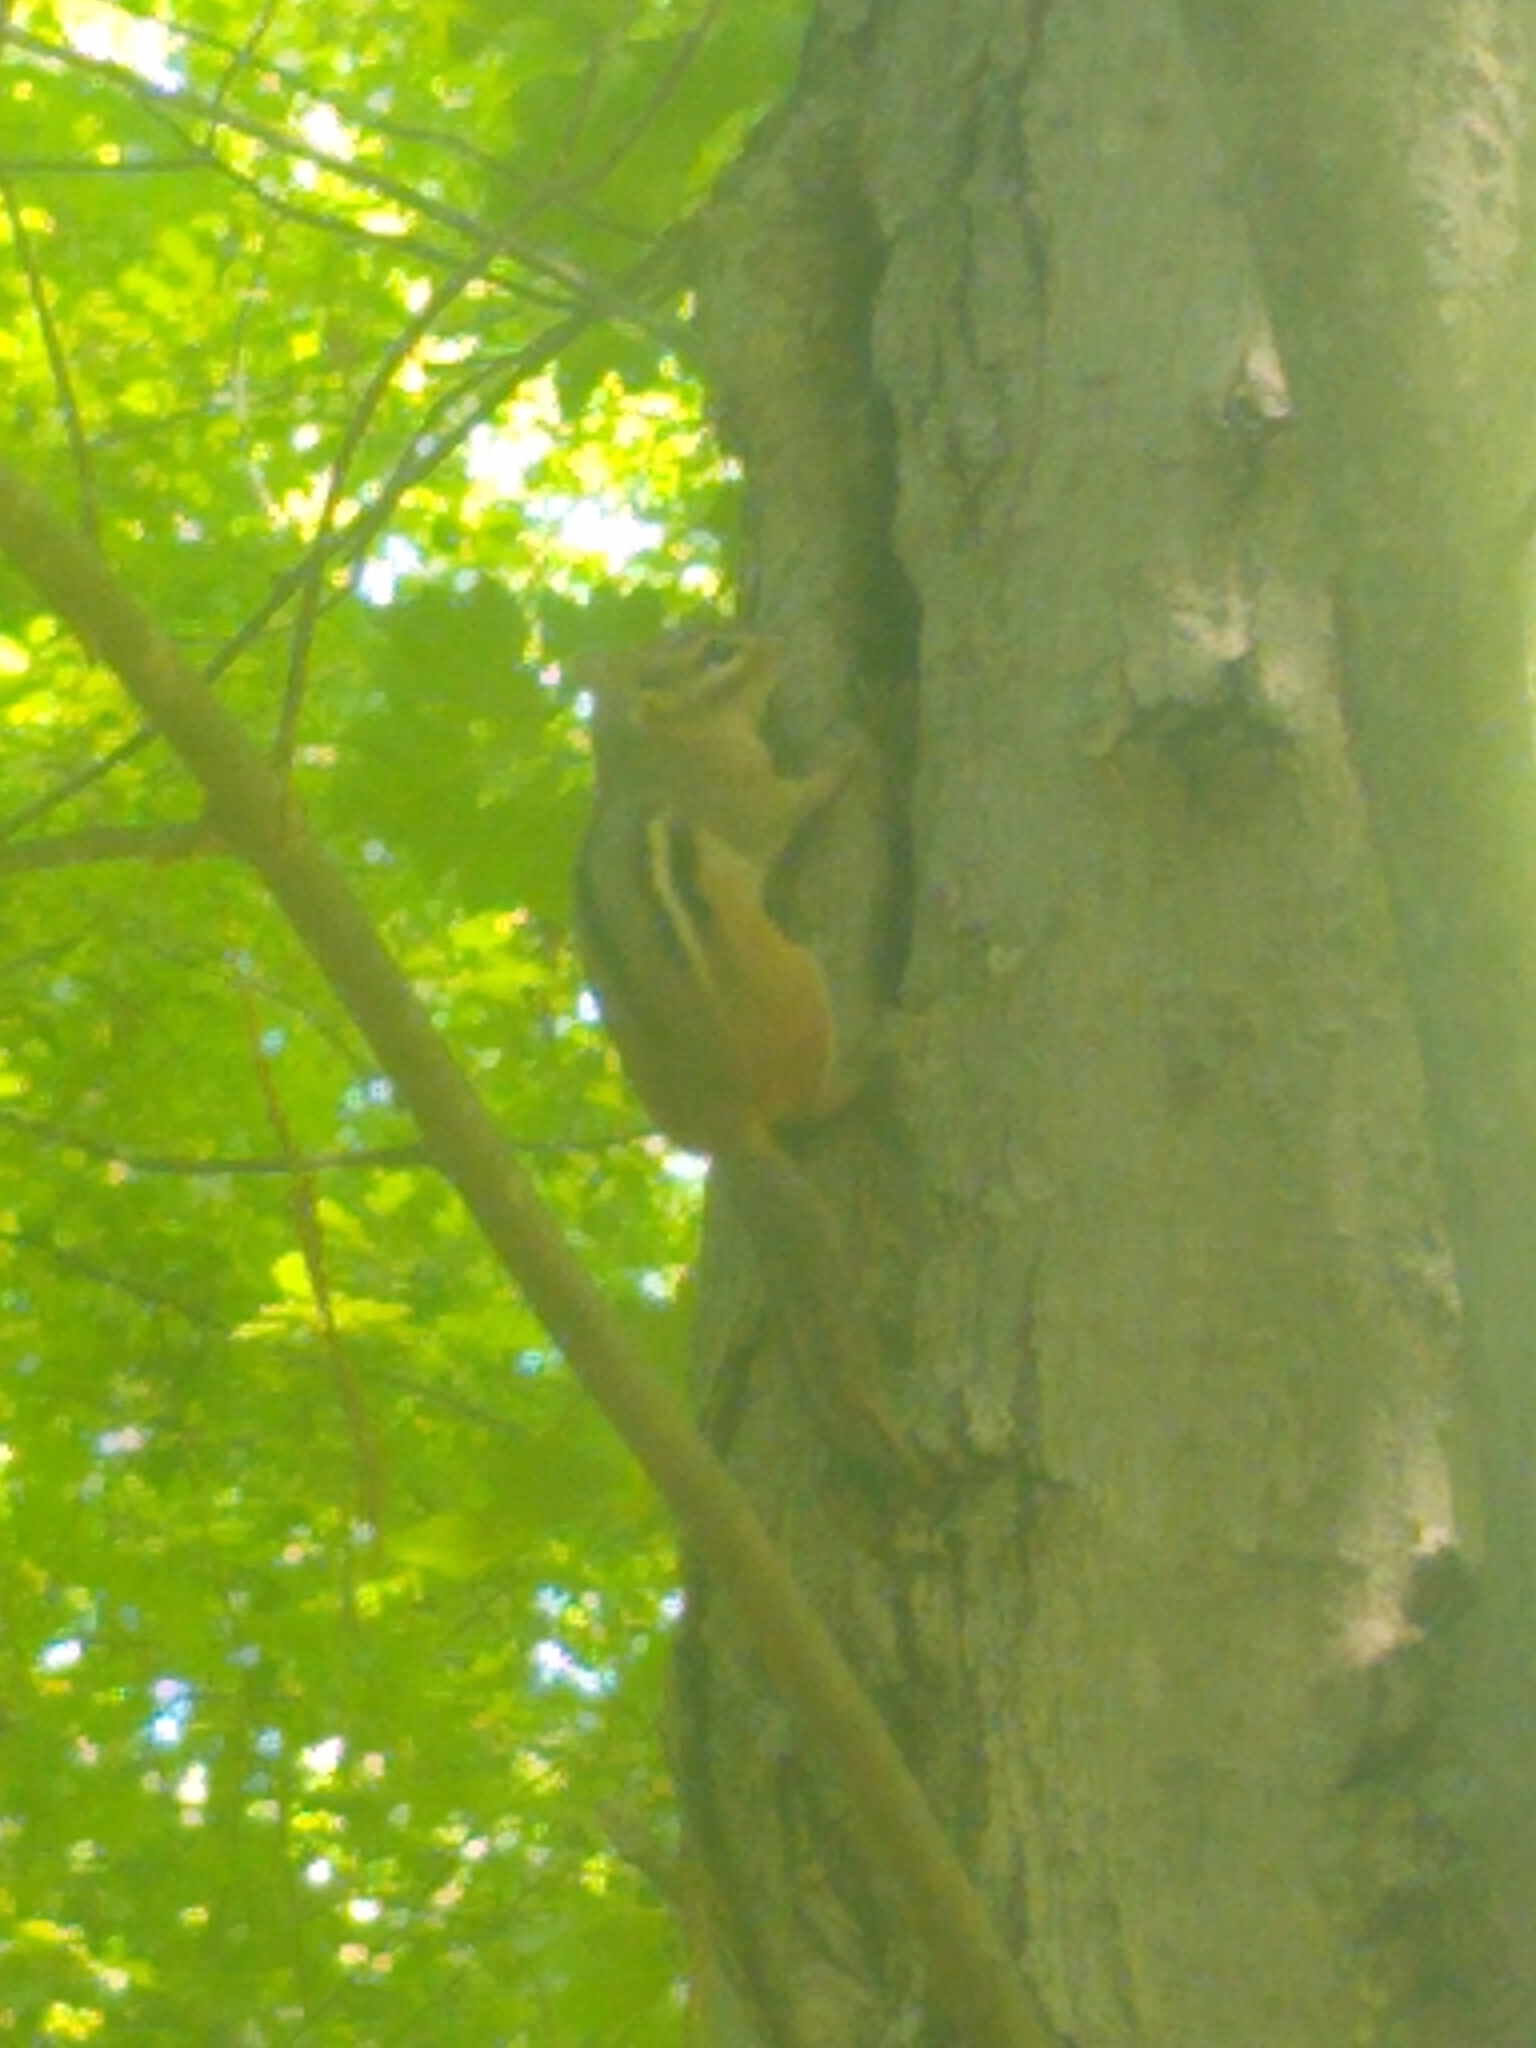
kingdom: Animalia
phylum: Chordata
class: Mammalia
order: Rodentia
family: Sciuridae
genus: Tamias
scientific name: Tamias striatus
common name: Eastern chipmunk
